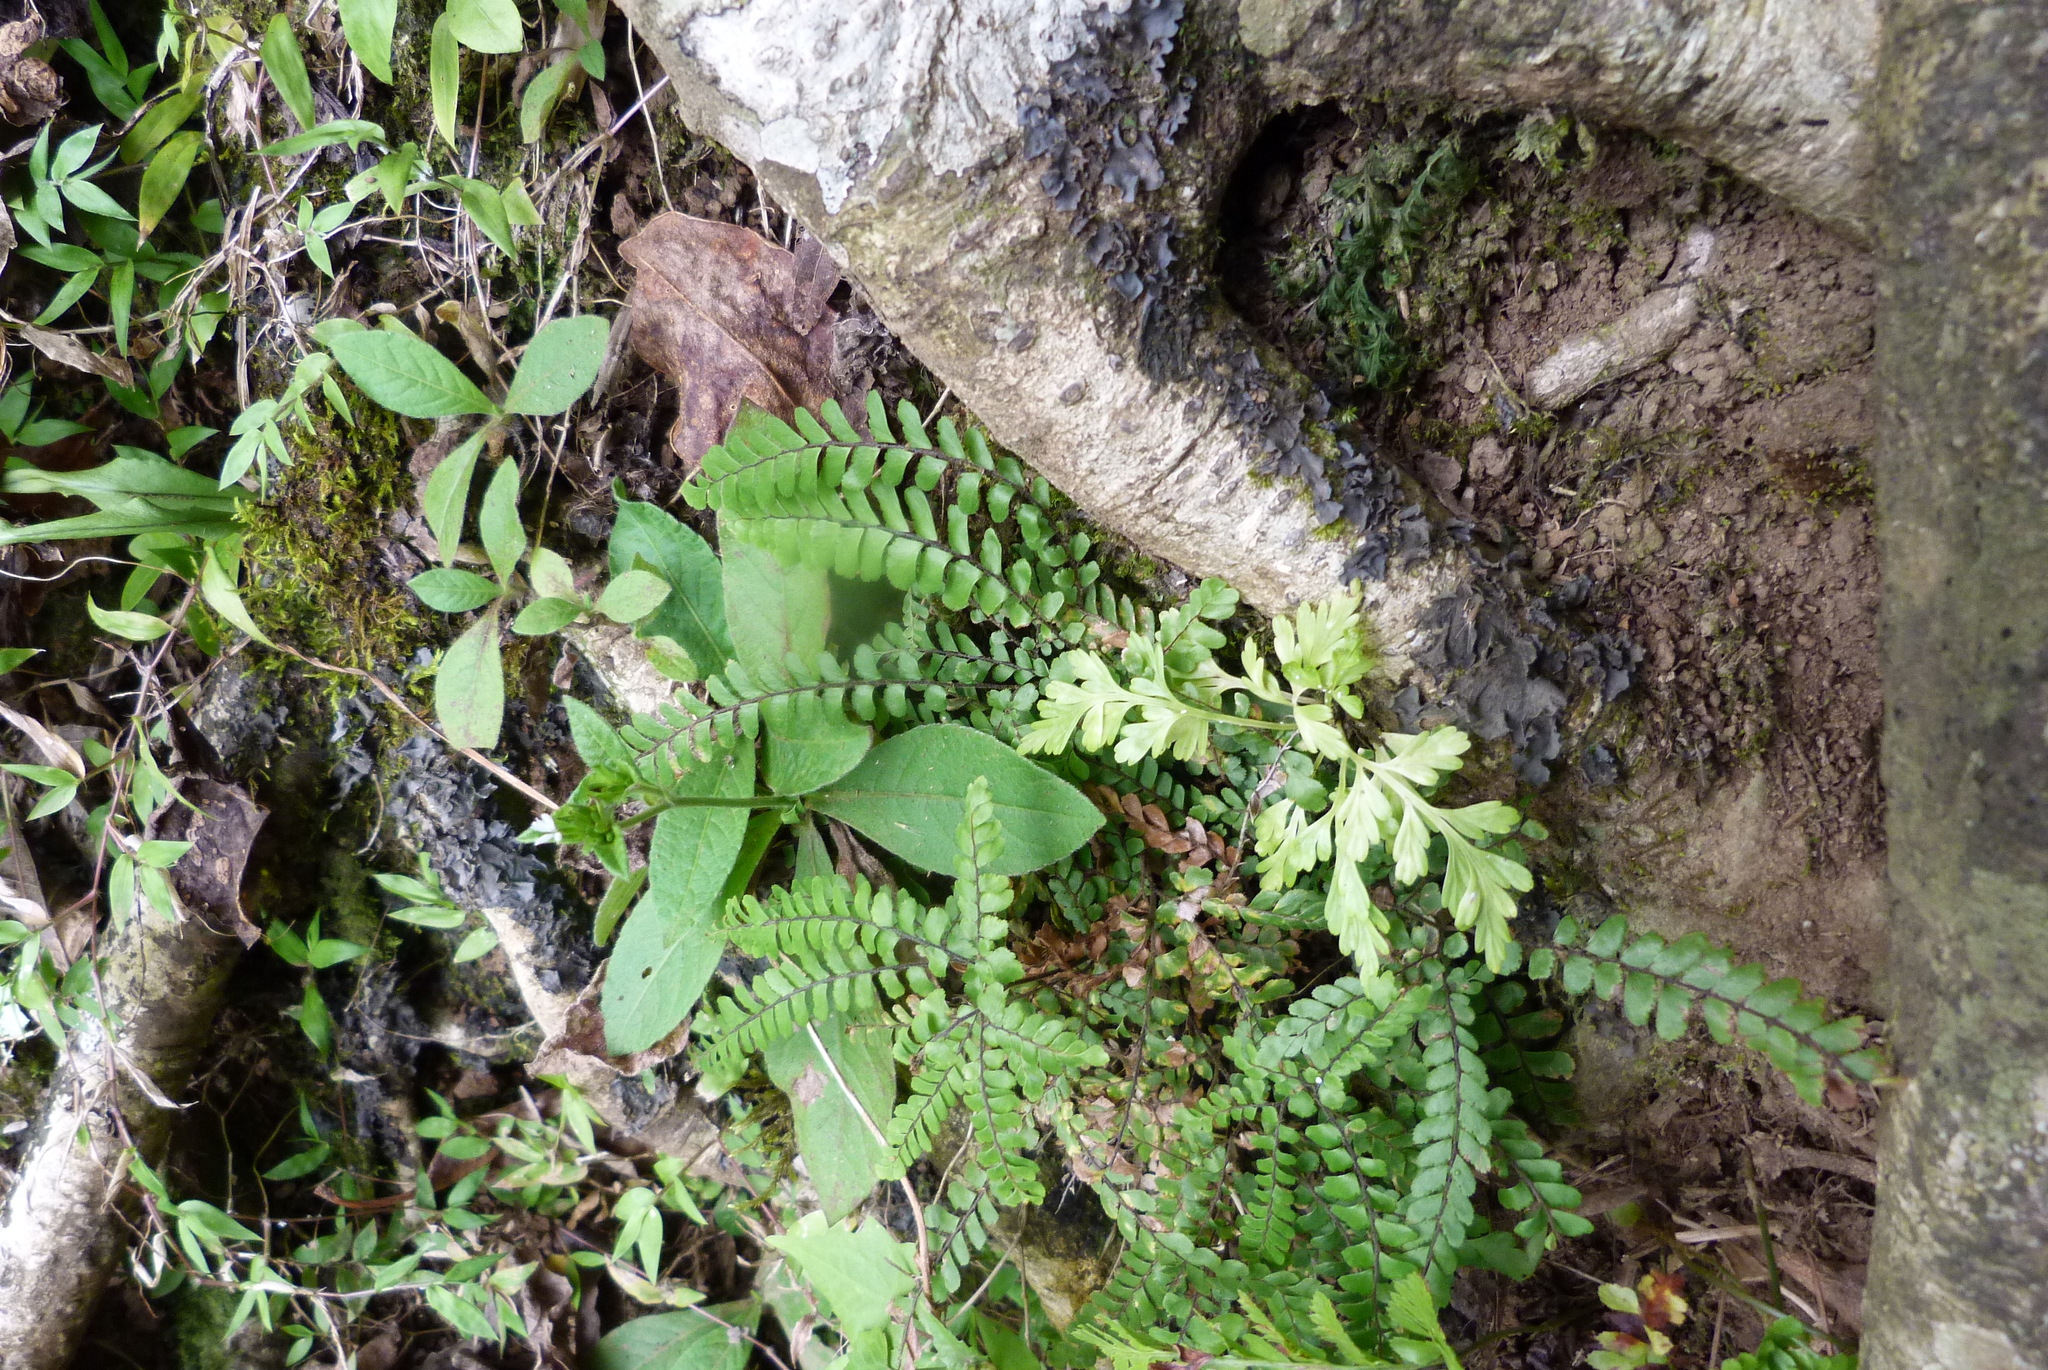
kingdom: Plantae
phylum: Tracheophyta
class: Polypodiopsida
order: Polypodiales
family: Pteridaceae
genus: Adiantum
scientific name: Adiantum hispidulum
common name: Rough maidenhair
